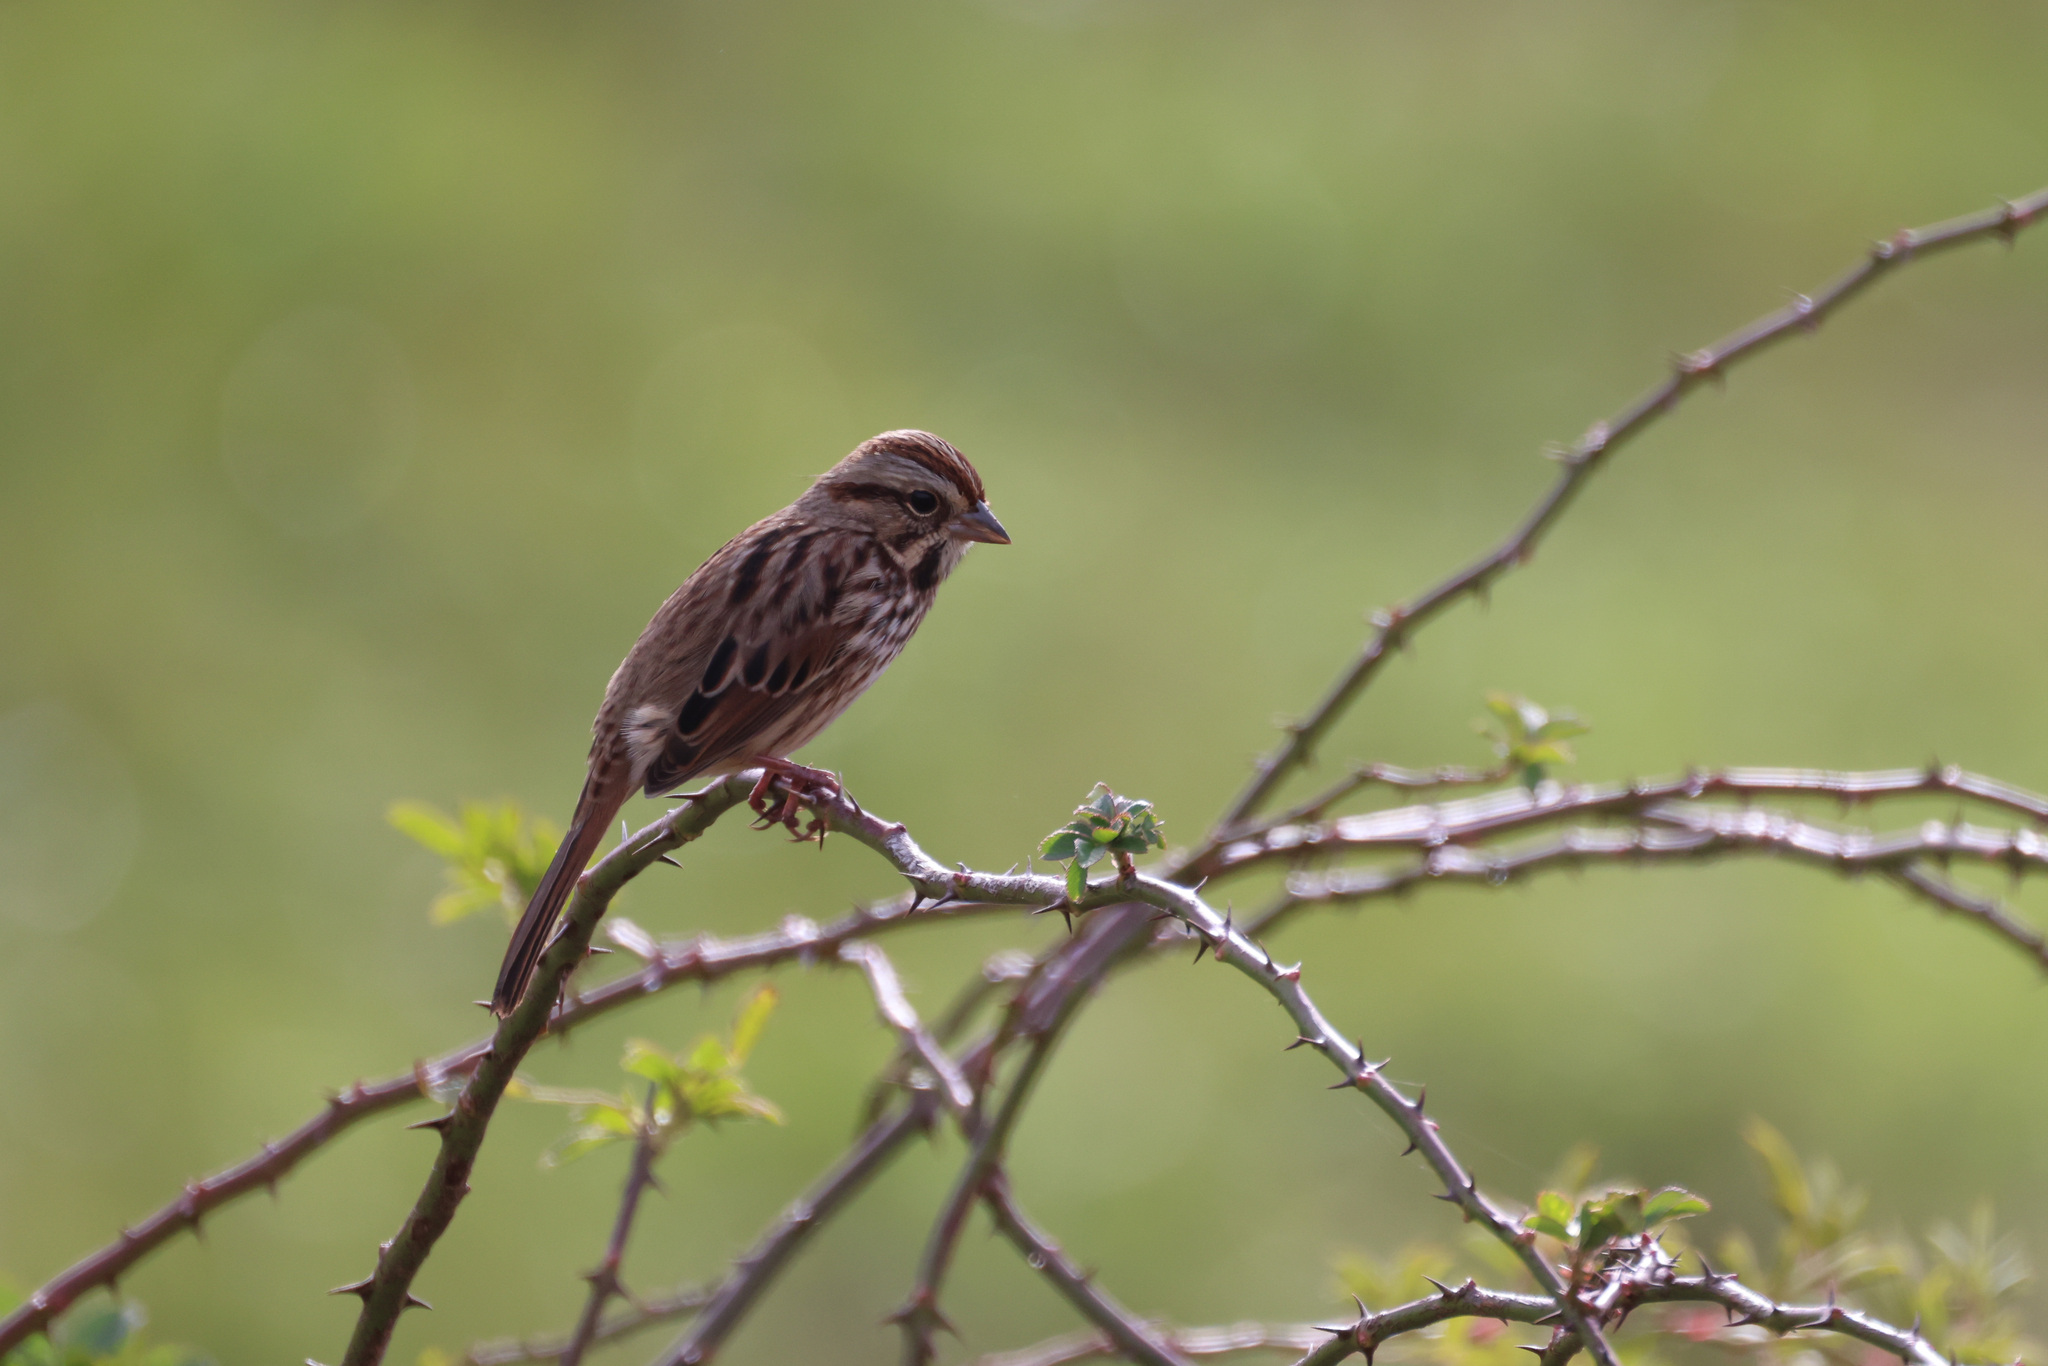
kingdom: Animalia
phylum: Chordata
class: Aves
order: Passeriformes
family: Passerellidae
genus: Melospiza
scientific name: Melospiza melodia
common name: Song sparrow
